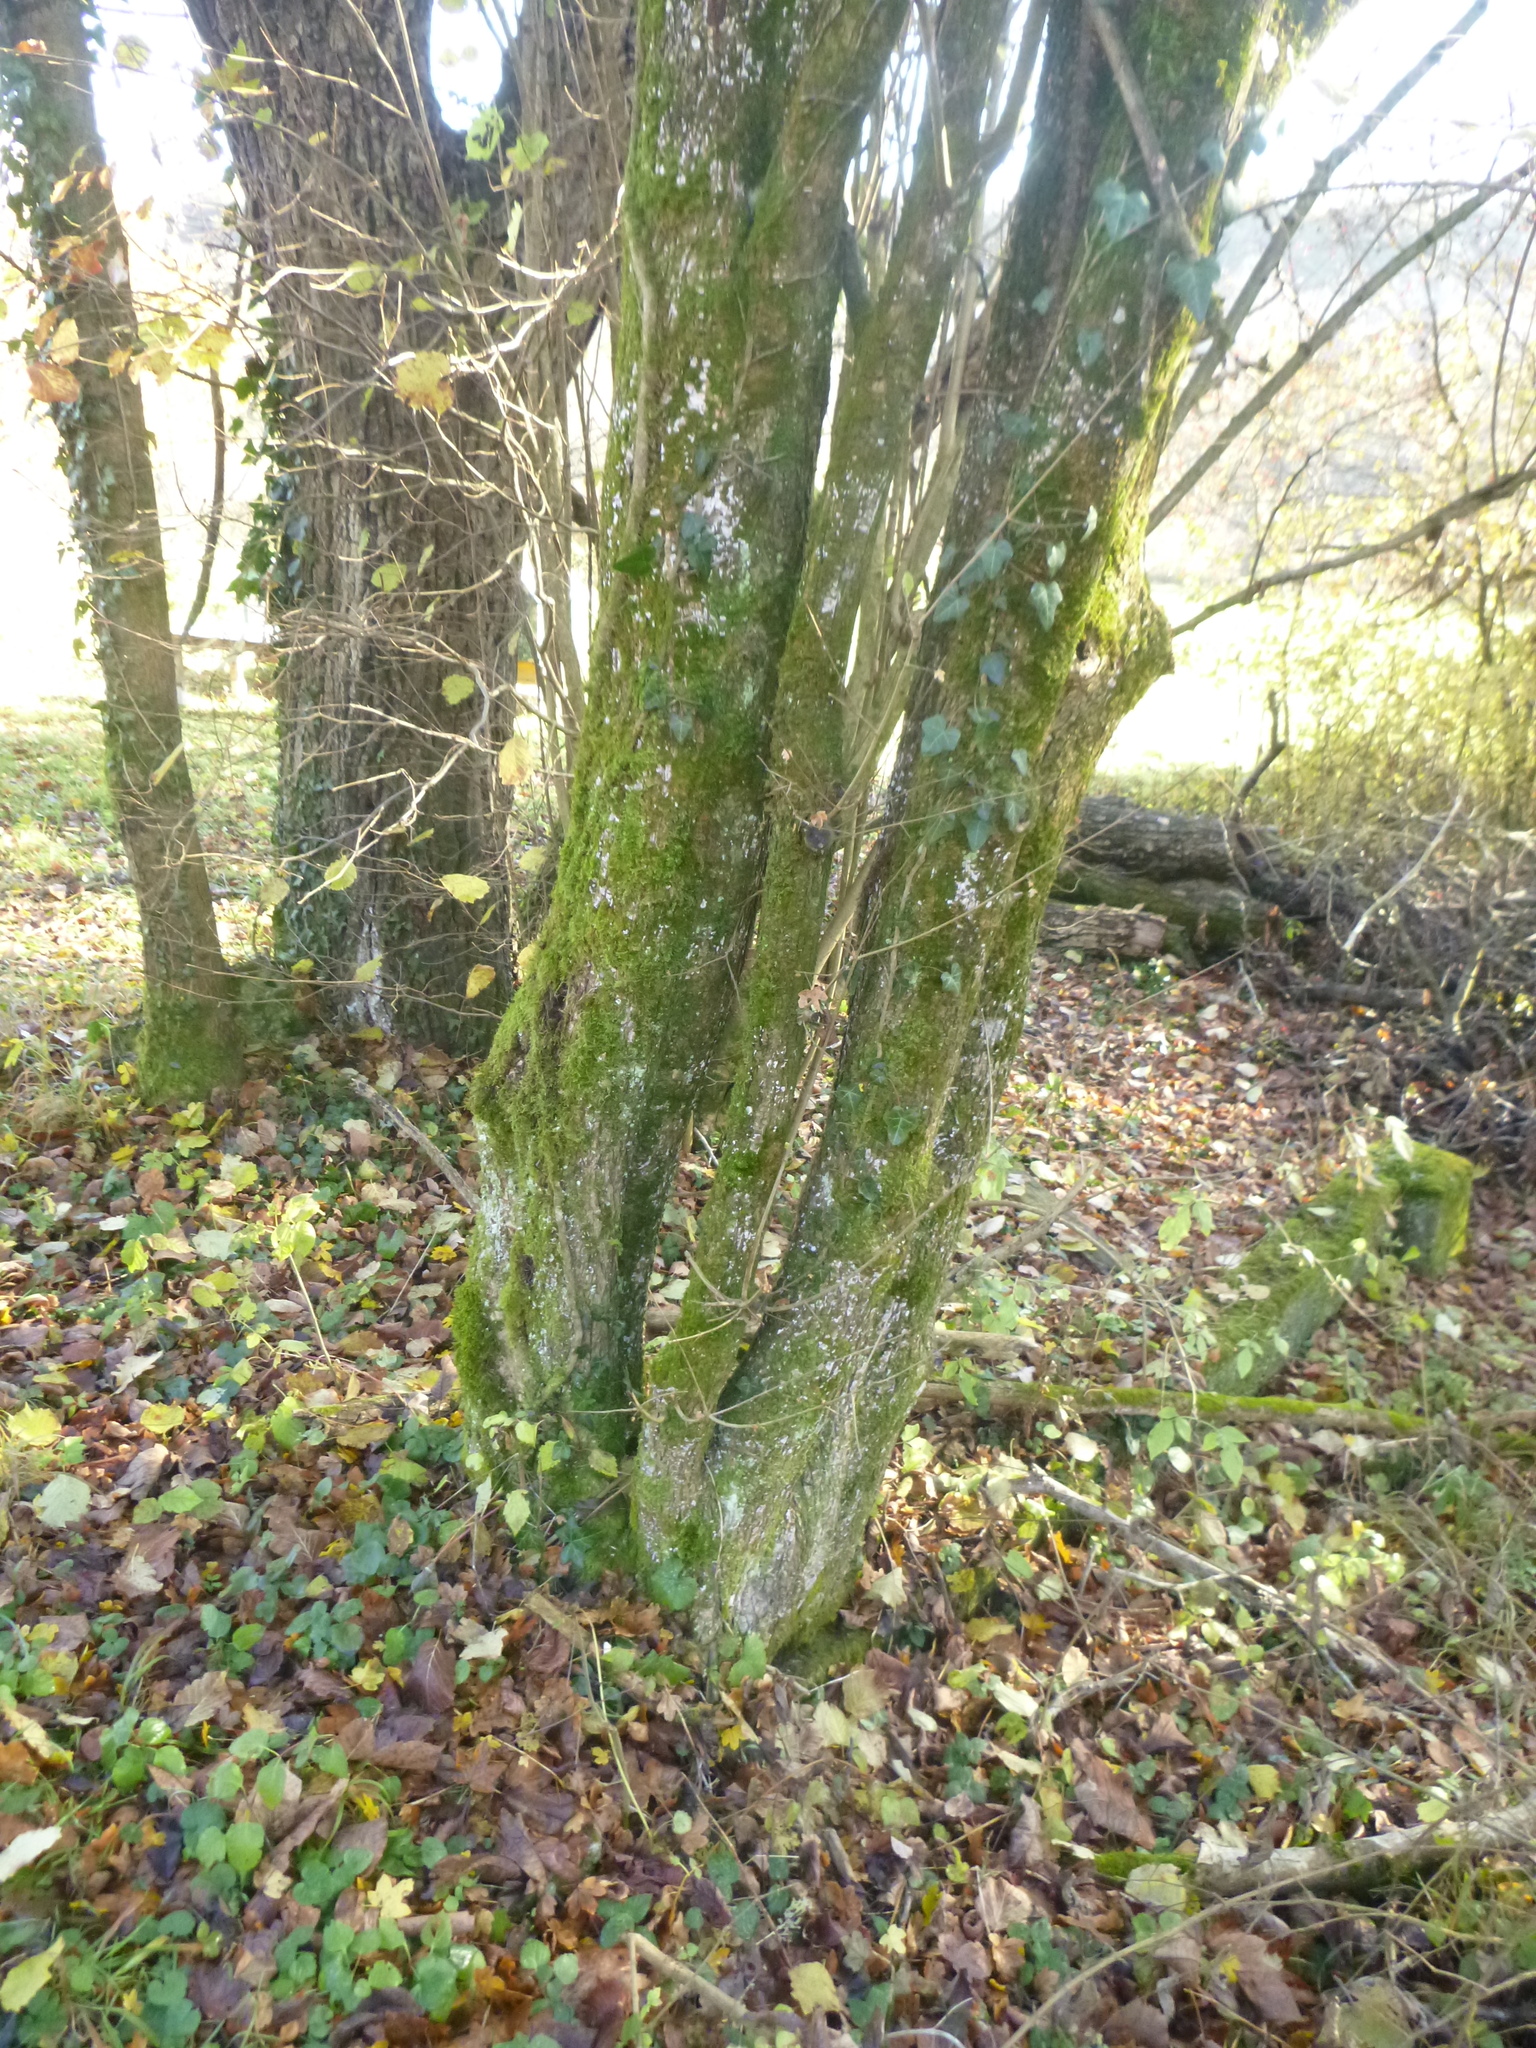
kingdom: Plantae
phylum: Tracheophyta
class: Magnoliopsida
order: Sapindales
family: Sapindaceae
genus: Acer
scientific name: Acer campestre
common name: Field maple
